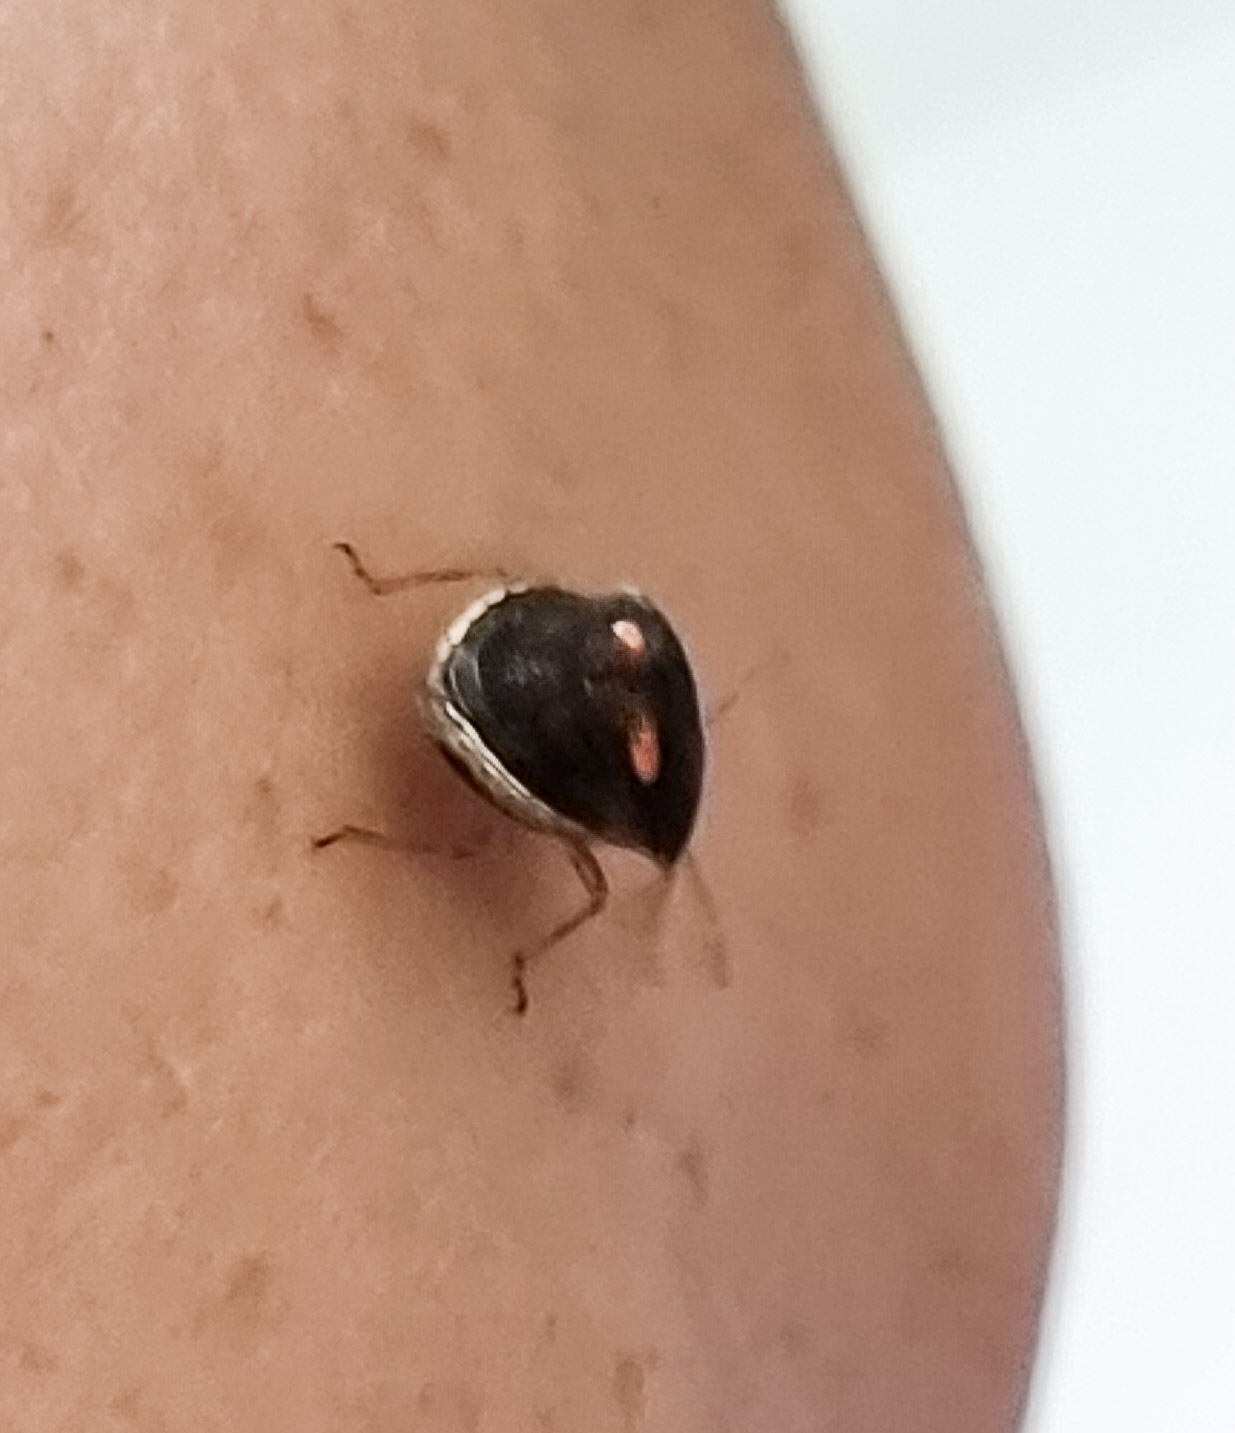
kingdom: Animalia
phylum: Arthropoda
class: Insecta
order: Hemiptera
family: Pentatomidae
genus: Eysarcoris
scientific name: Eysarcoris
